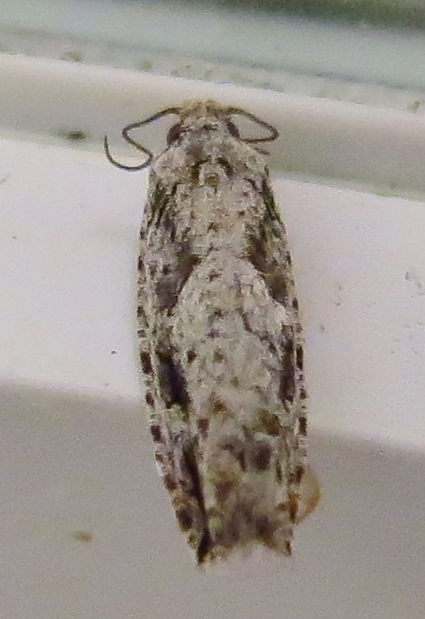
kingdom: Animalia
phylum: Arthropoda
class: Insecta
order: Lepidoptera
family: Tortricidae
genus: Gretchena
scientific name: Gretchena bolliana
